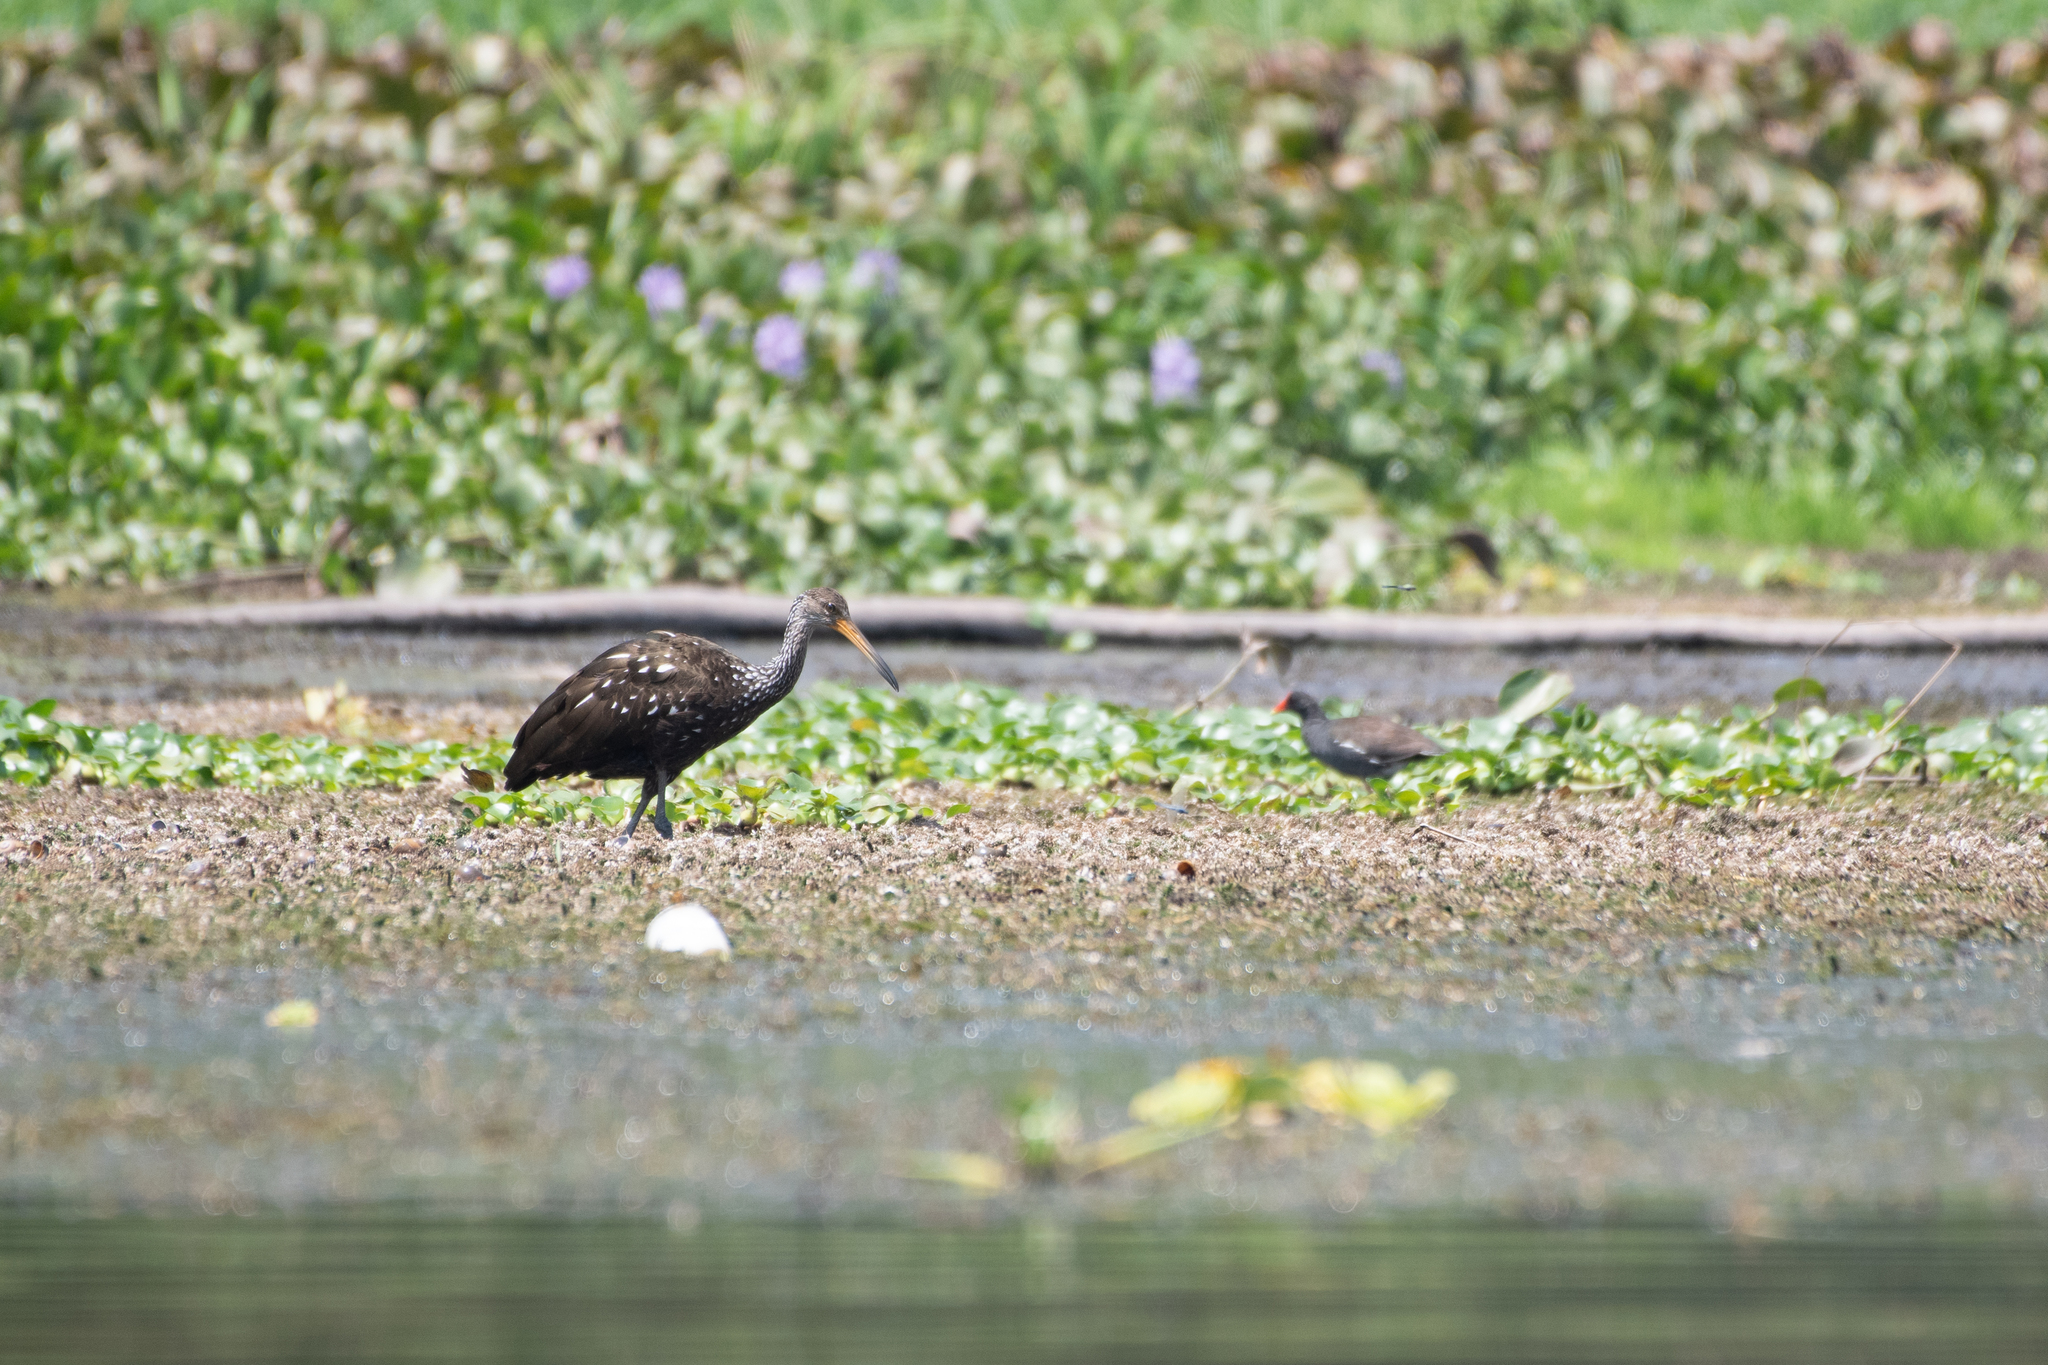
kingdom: Animalia
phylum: Chordata
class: Aves
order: Gruiformes
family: Aramidae
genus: Aramus
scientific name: Aramus guarauna
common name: Limpkin
